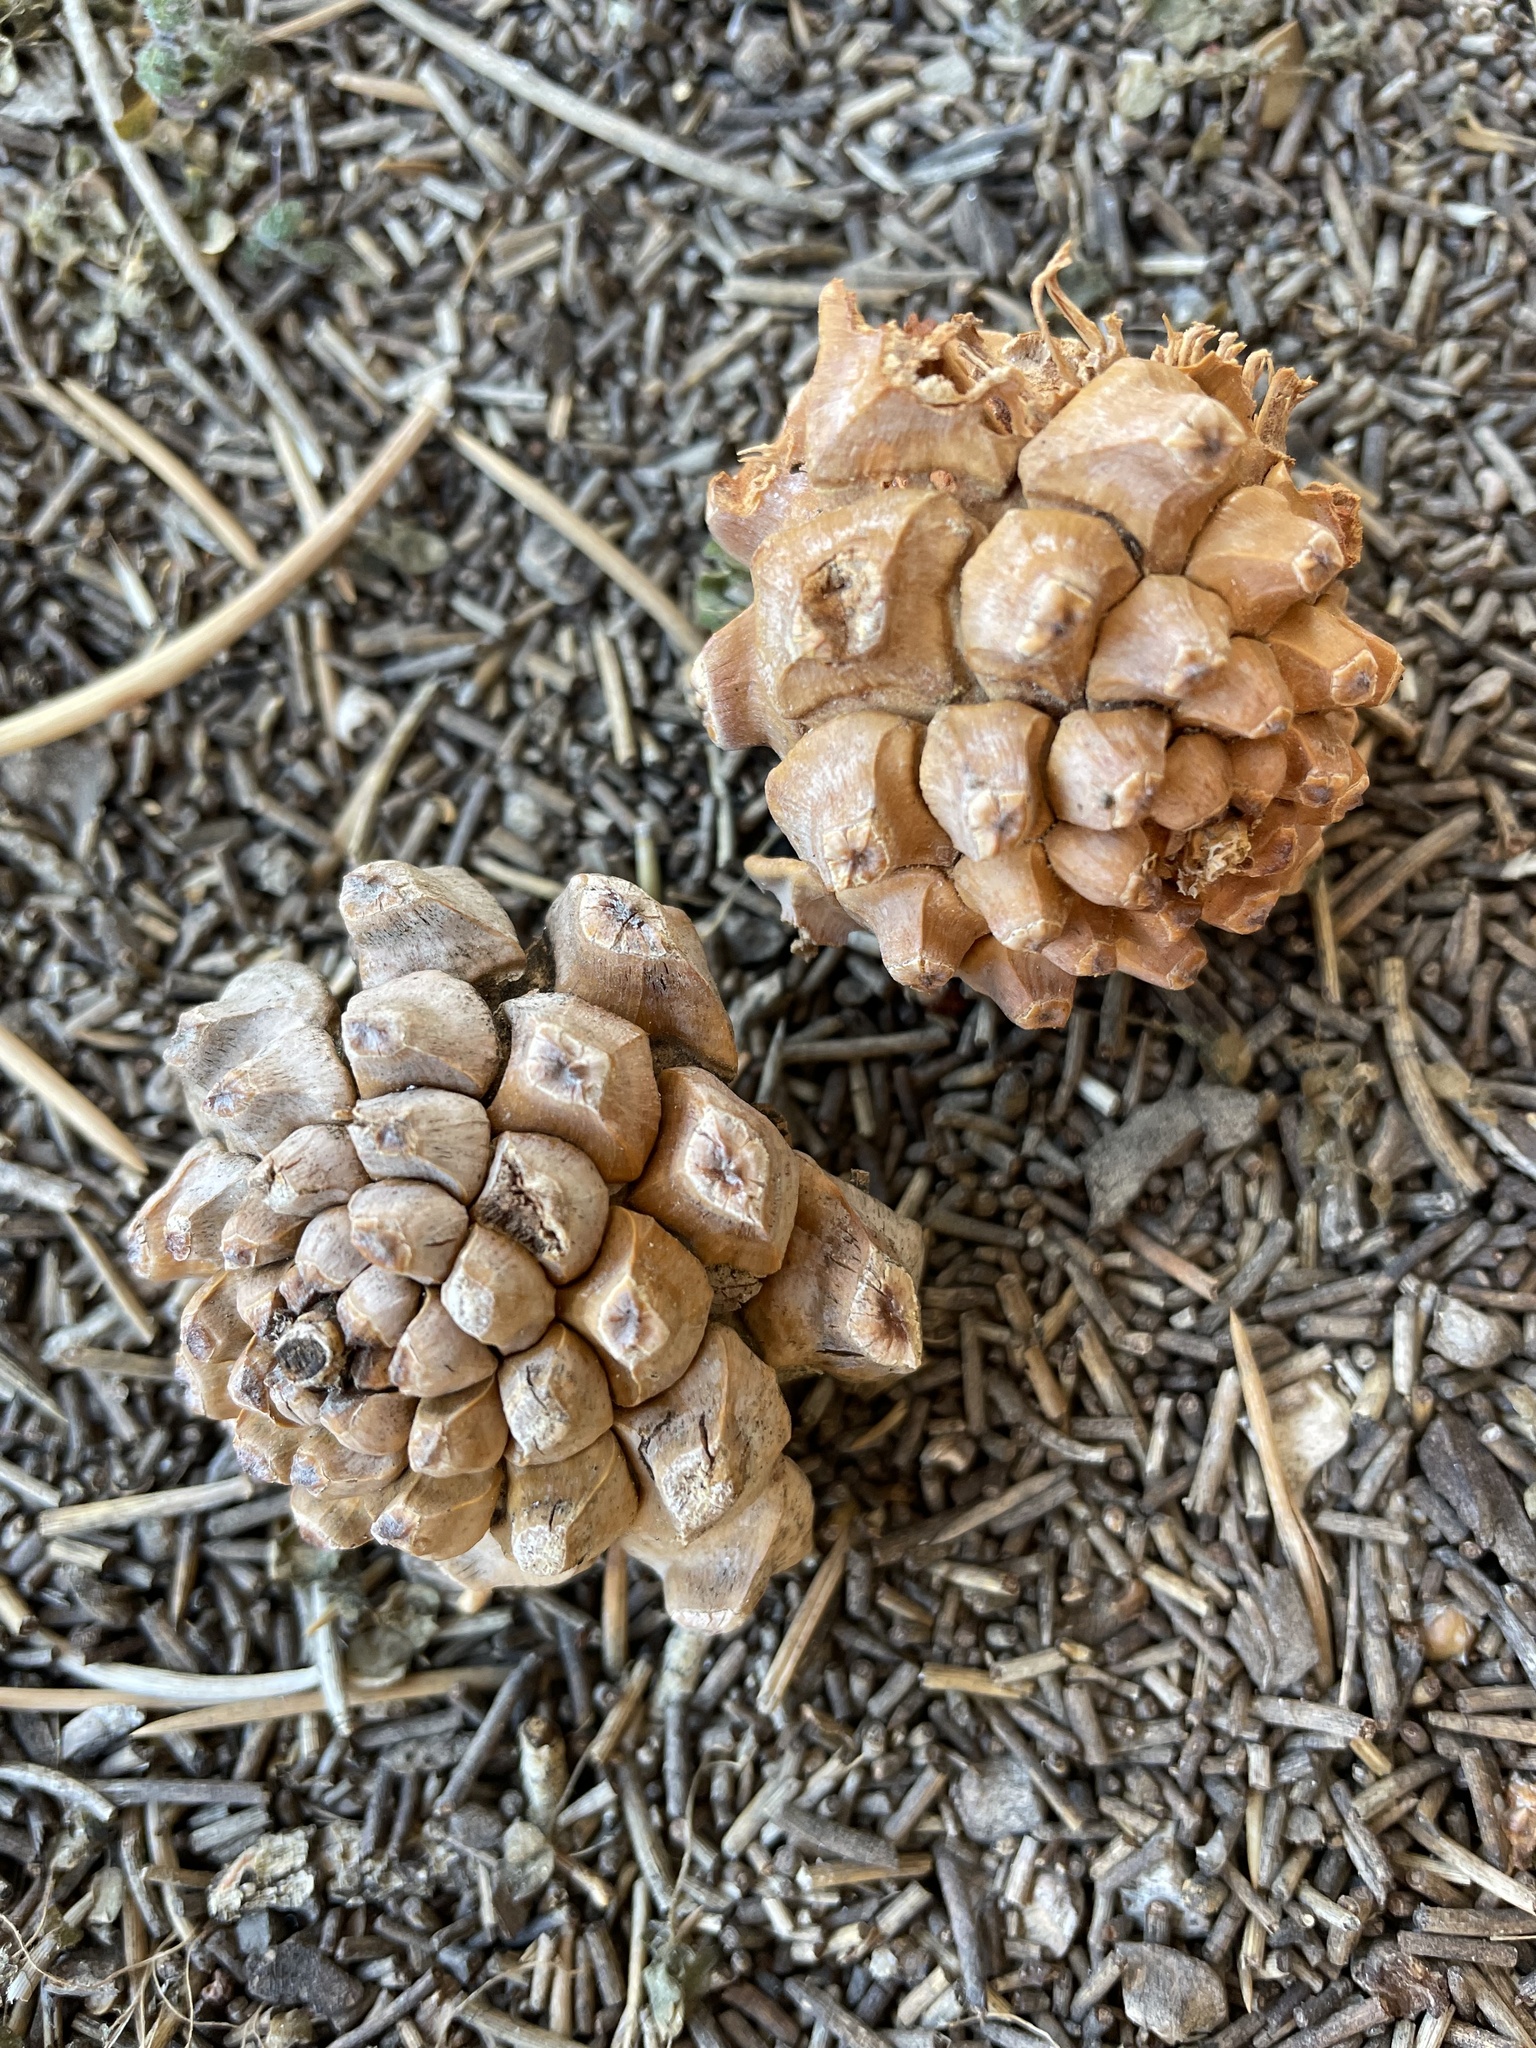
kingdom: Plantae
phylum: Tracheophyta
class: Pinopsida
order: Pinales
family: Pinaceae
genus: Pinus
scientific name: Pinus monophylla
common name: One-leaved nut pine
